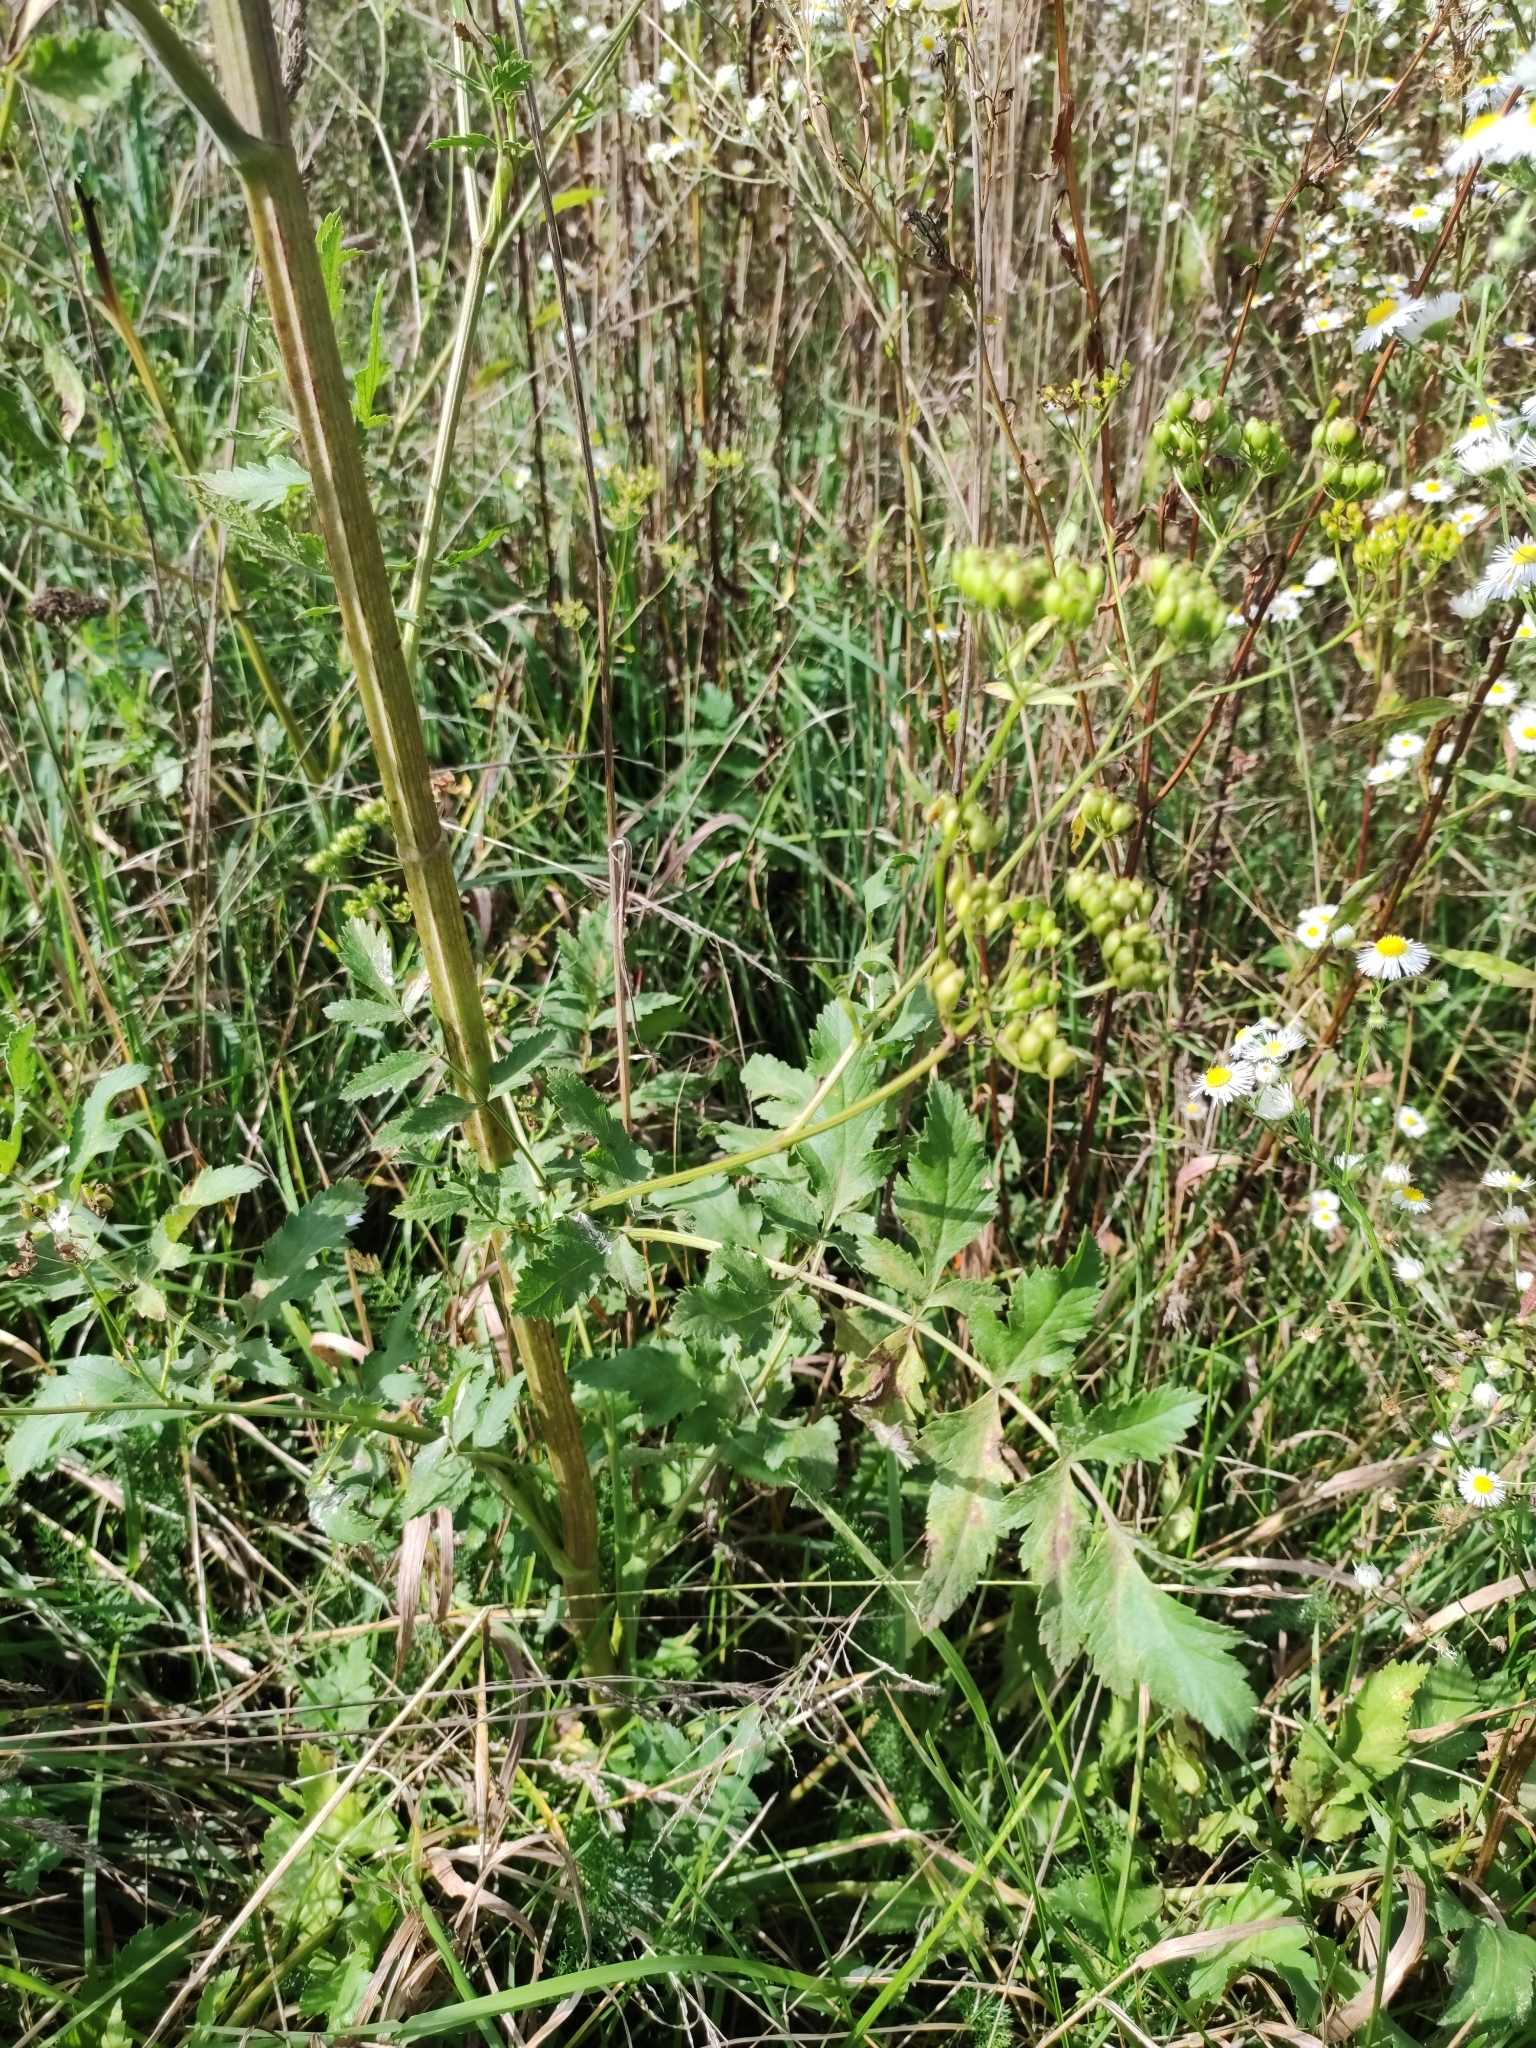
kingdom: Plantae
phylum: Tracheophyta
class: Magnoliopsida
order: Apiales
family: Apiaceae
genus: Pastinaca
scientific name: Pastinaca sativa
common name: Wild parsnip
